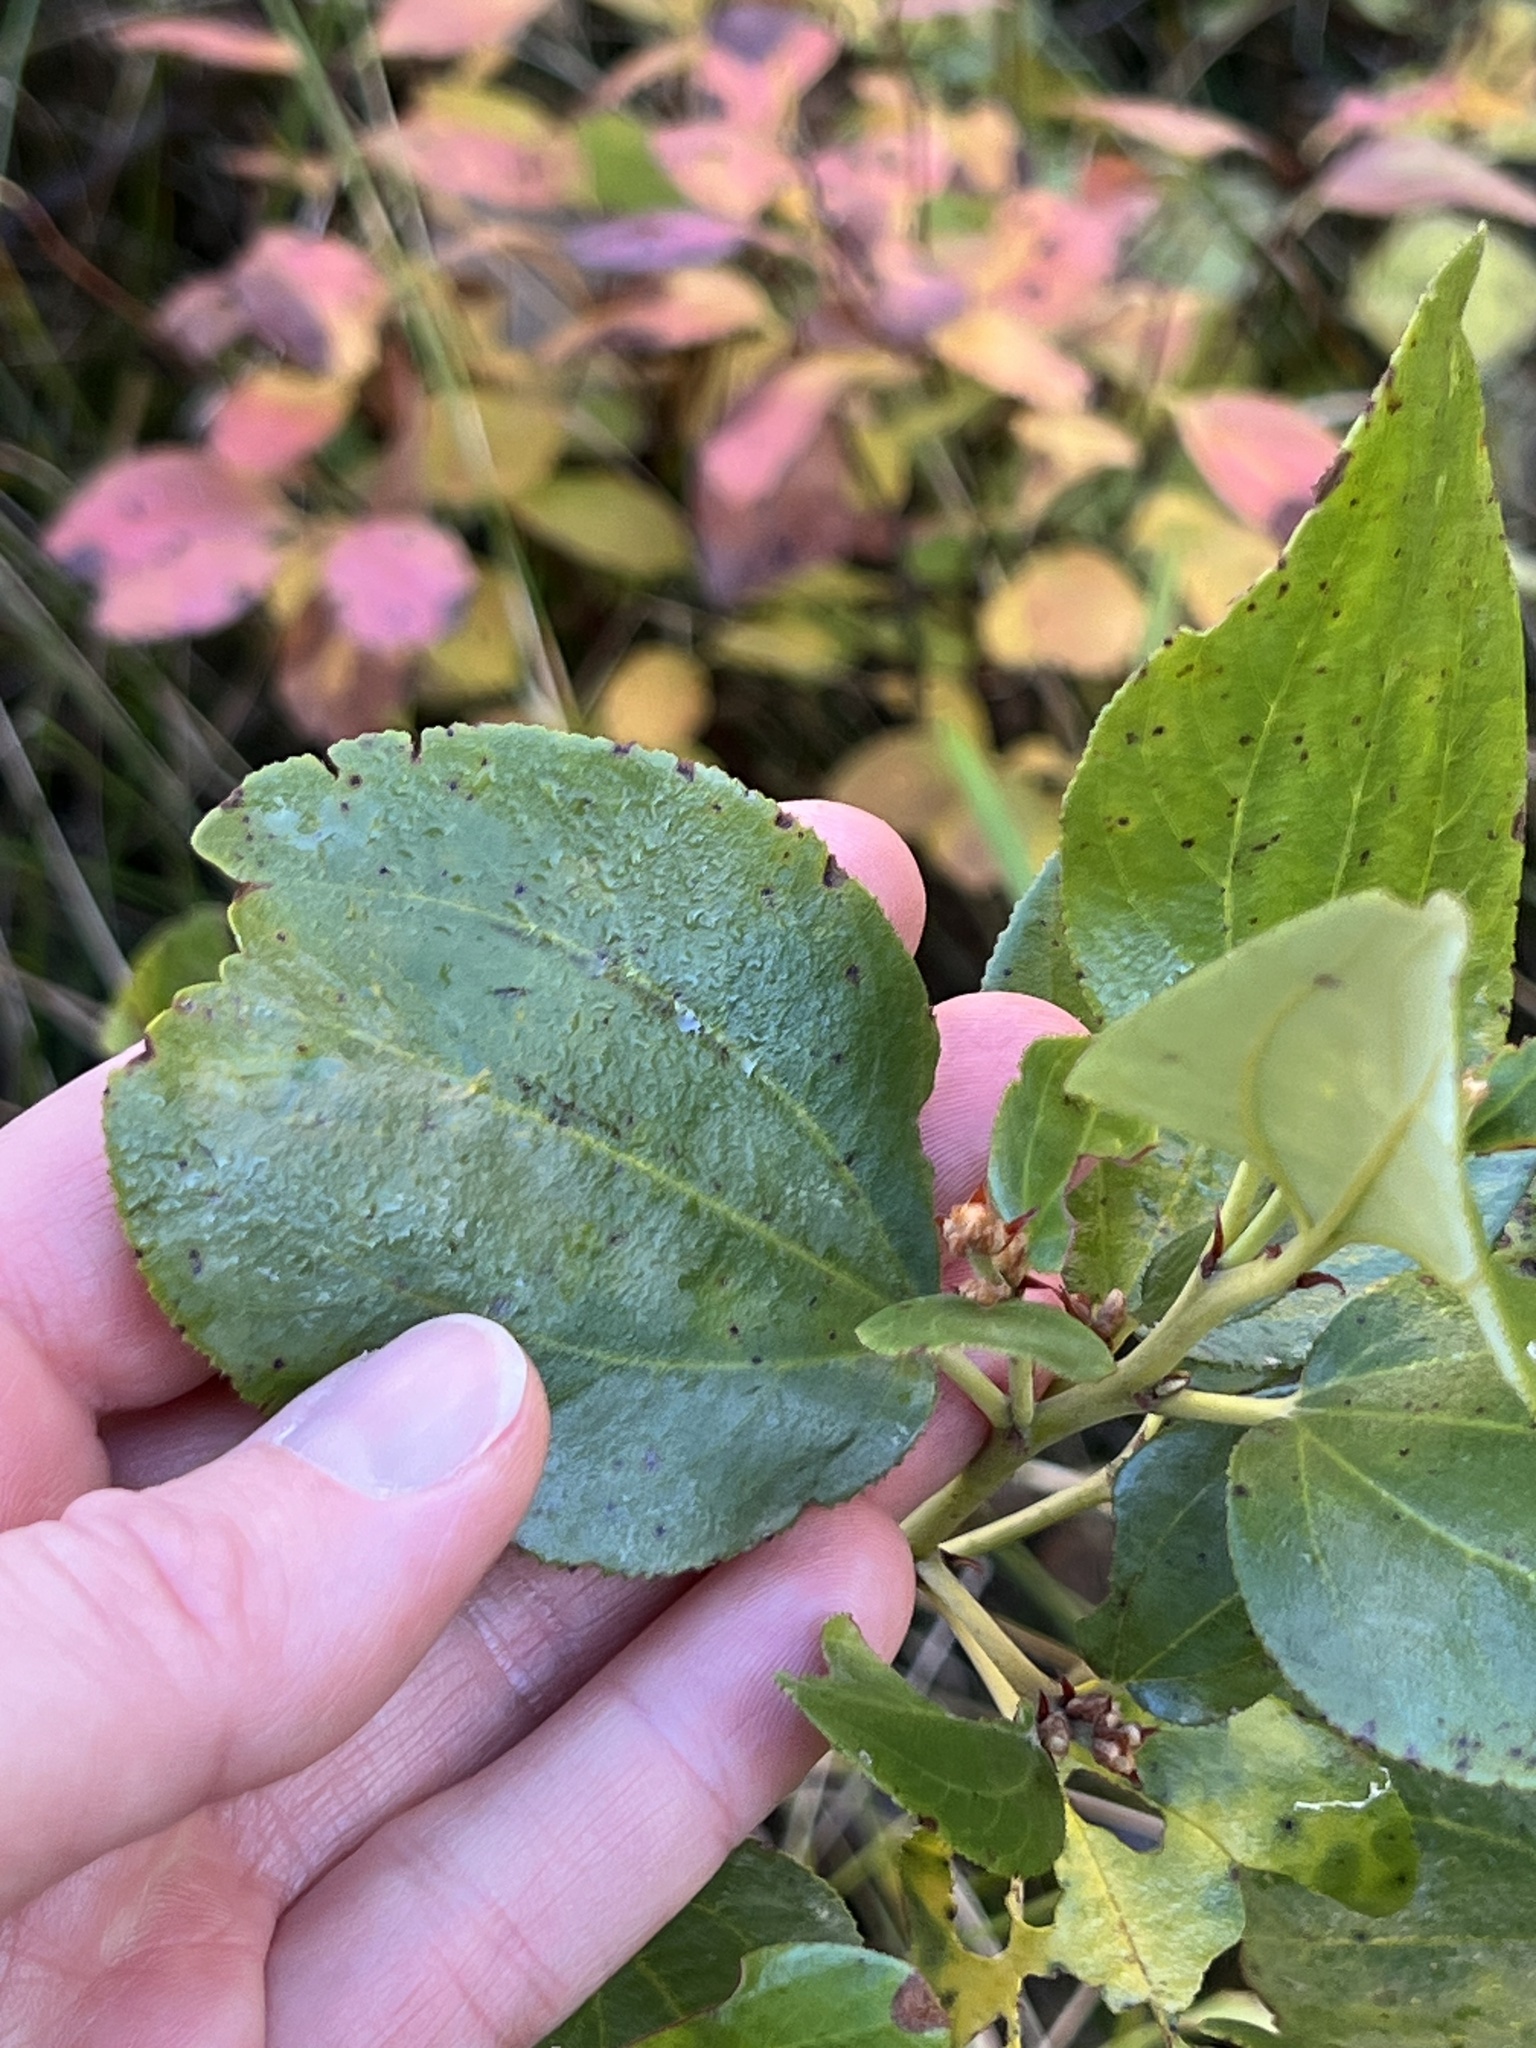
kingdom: Plantae
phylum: Tracheophyta
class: Magnoliopsida
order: Rosales
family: Rhamnaceae
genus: Ceanothus
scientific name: Ceanothus velutinus
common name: Snowbrush
